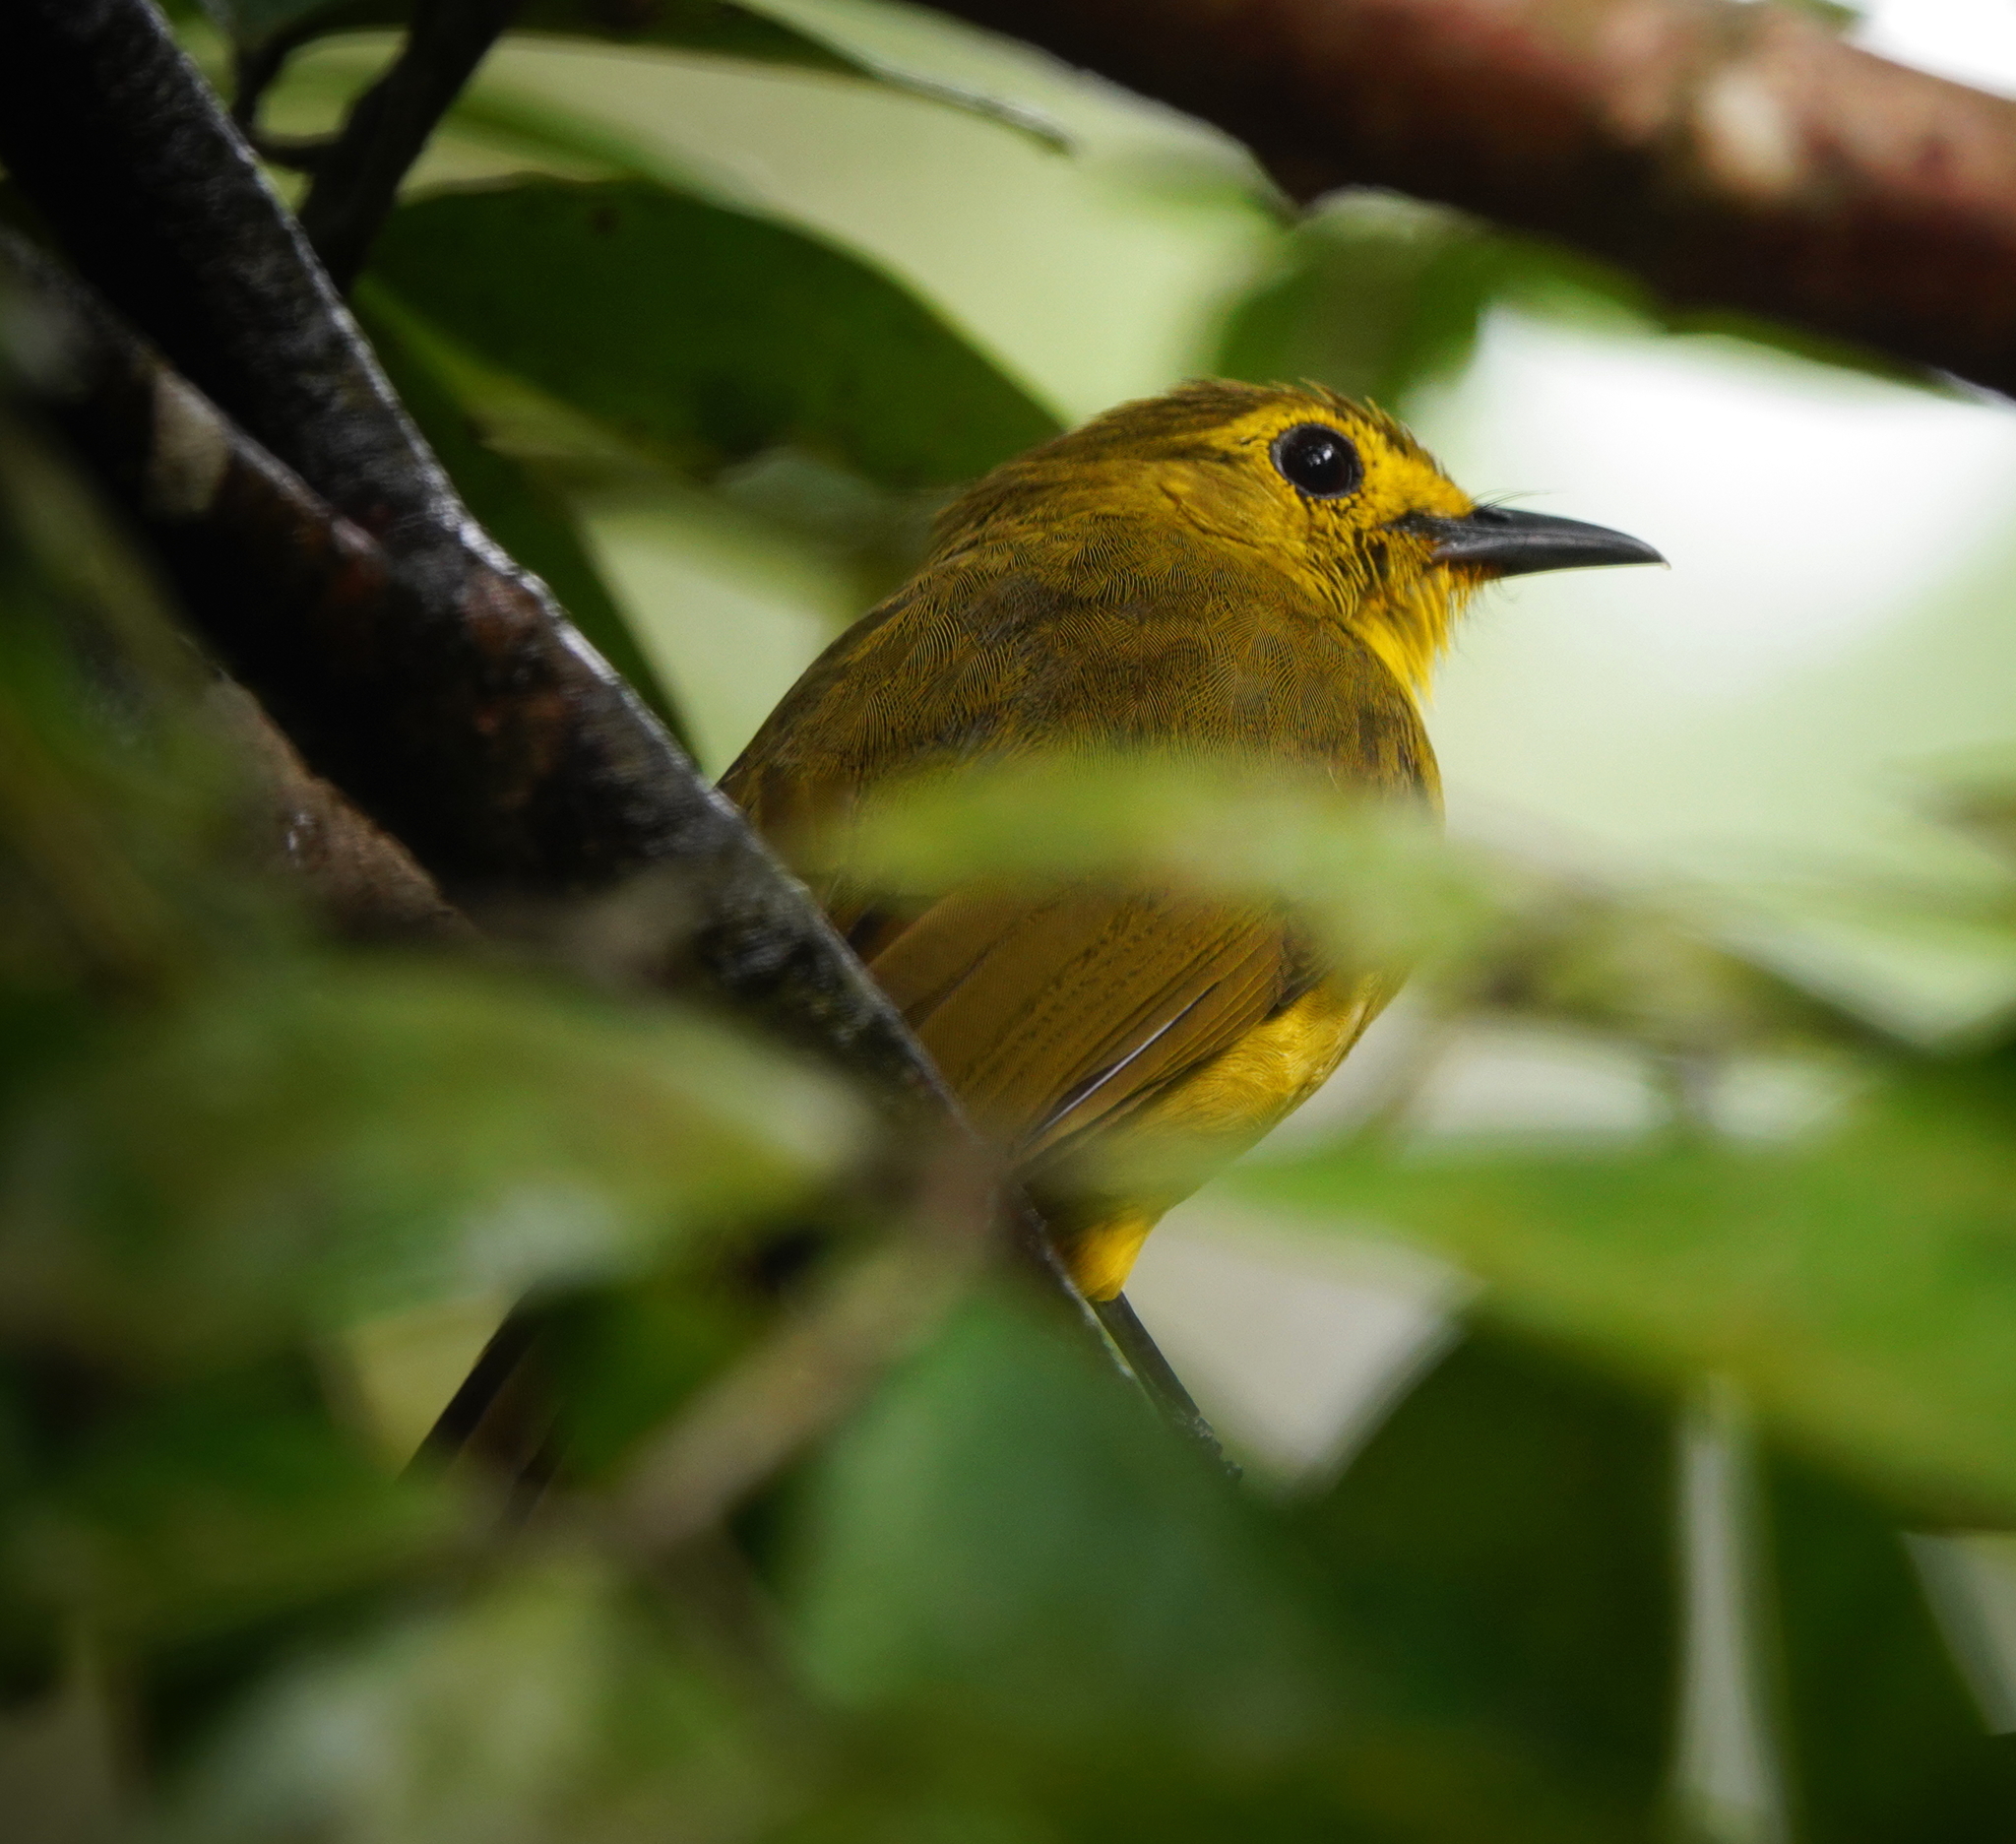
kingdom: Animalia
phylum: Chordata
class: Aves
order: Passeriformes
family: Pycnonotidae
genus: Acritillas
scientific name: Acritillas indica
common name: Yellow-browed bulbul
